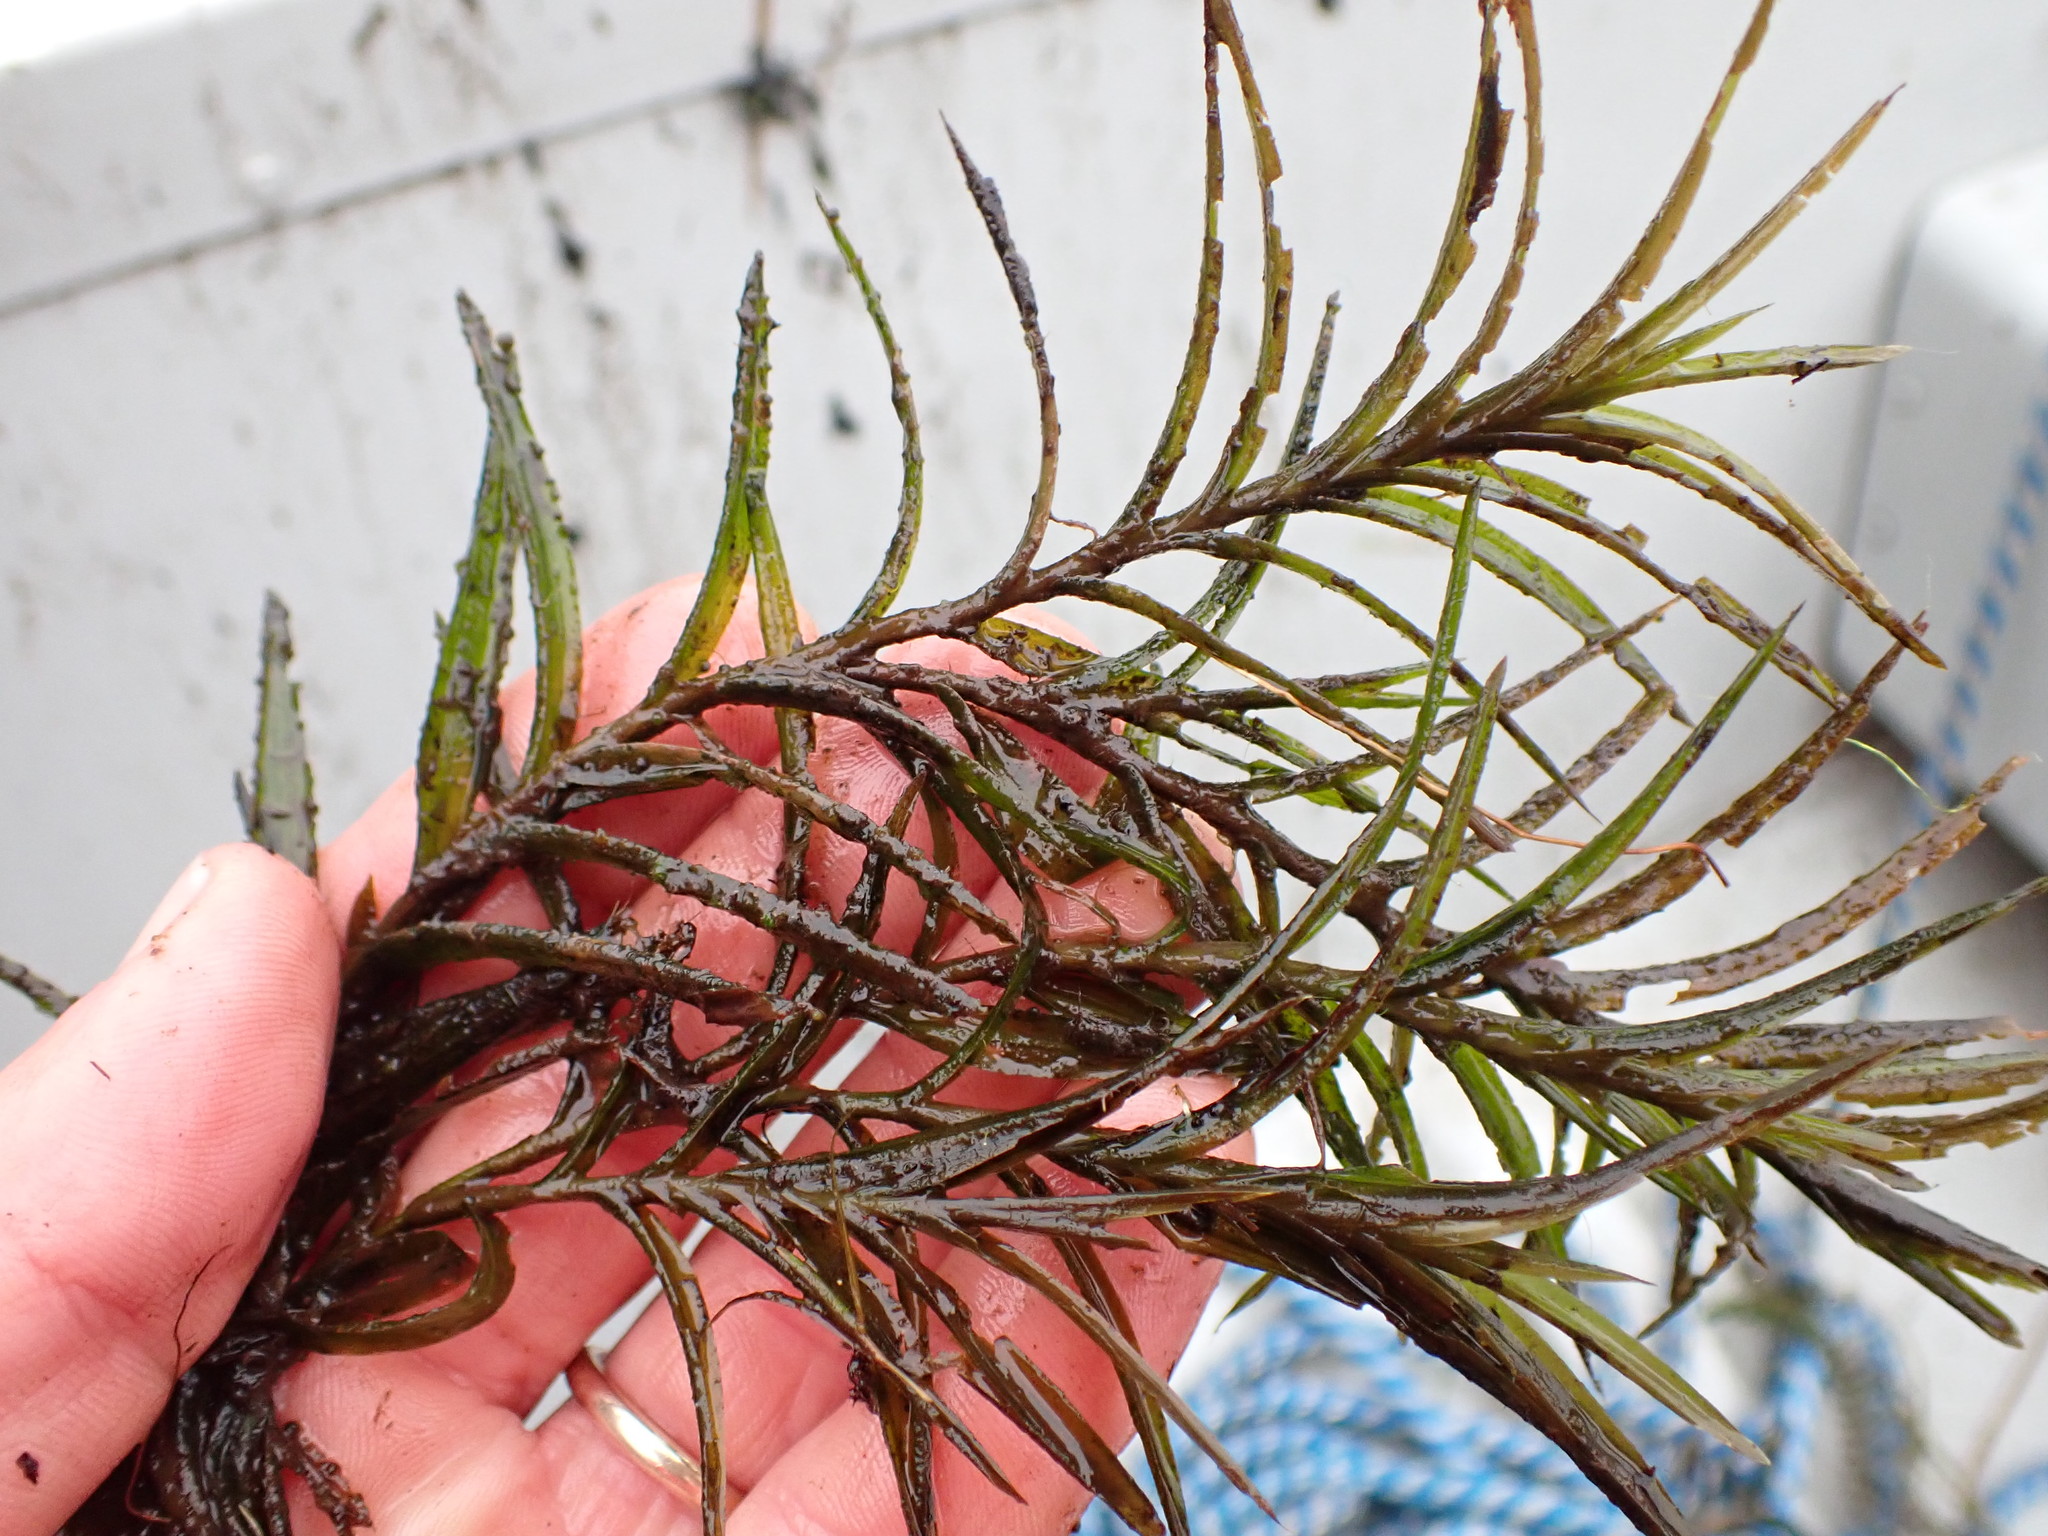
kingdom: Plantae
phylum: Tracheophyta
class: Liliopsida
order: Alismatales
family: Potamogetonaceae
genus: Potamogeton
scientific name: Potamogeton robbinsii
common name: Fern pondweed
